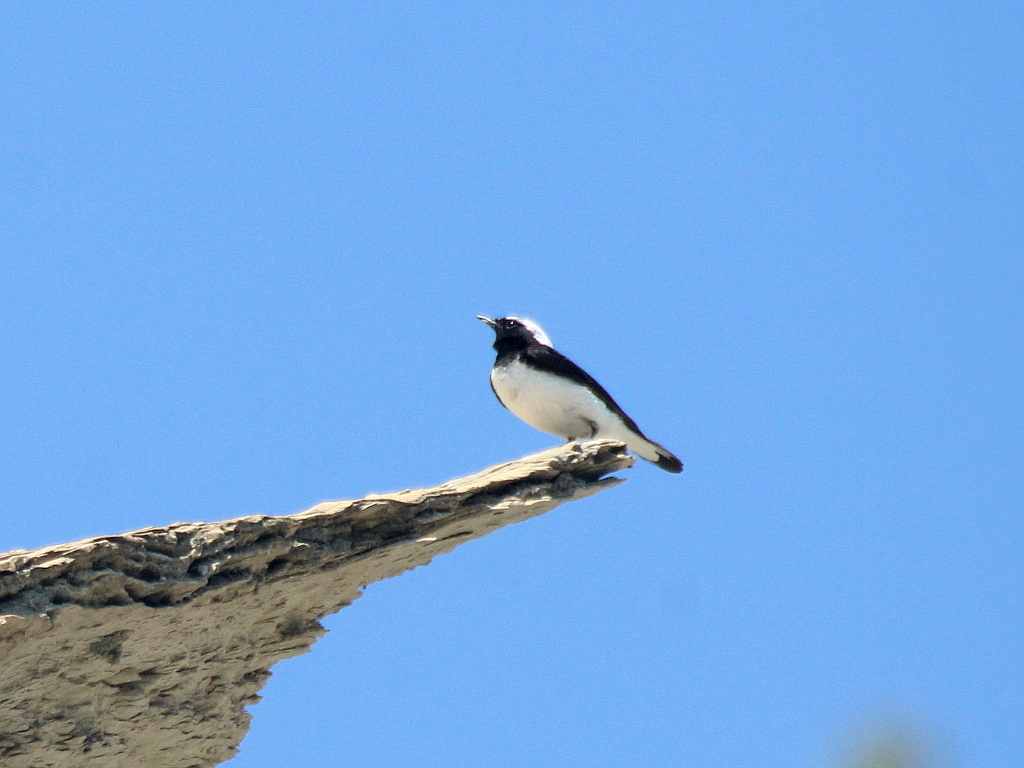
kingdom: Animalia
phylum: Chordata
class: Aves
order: Passeriformes
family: Muscicapidae
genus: Oenanthe
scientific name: Oenanthe pleschanka
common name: Pied wheatear
